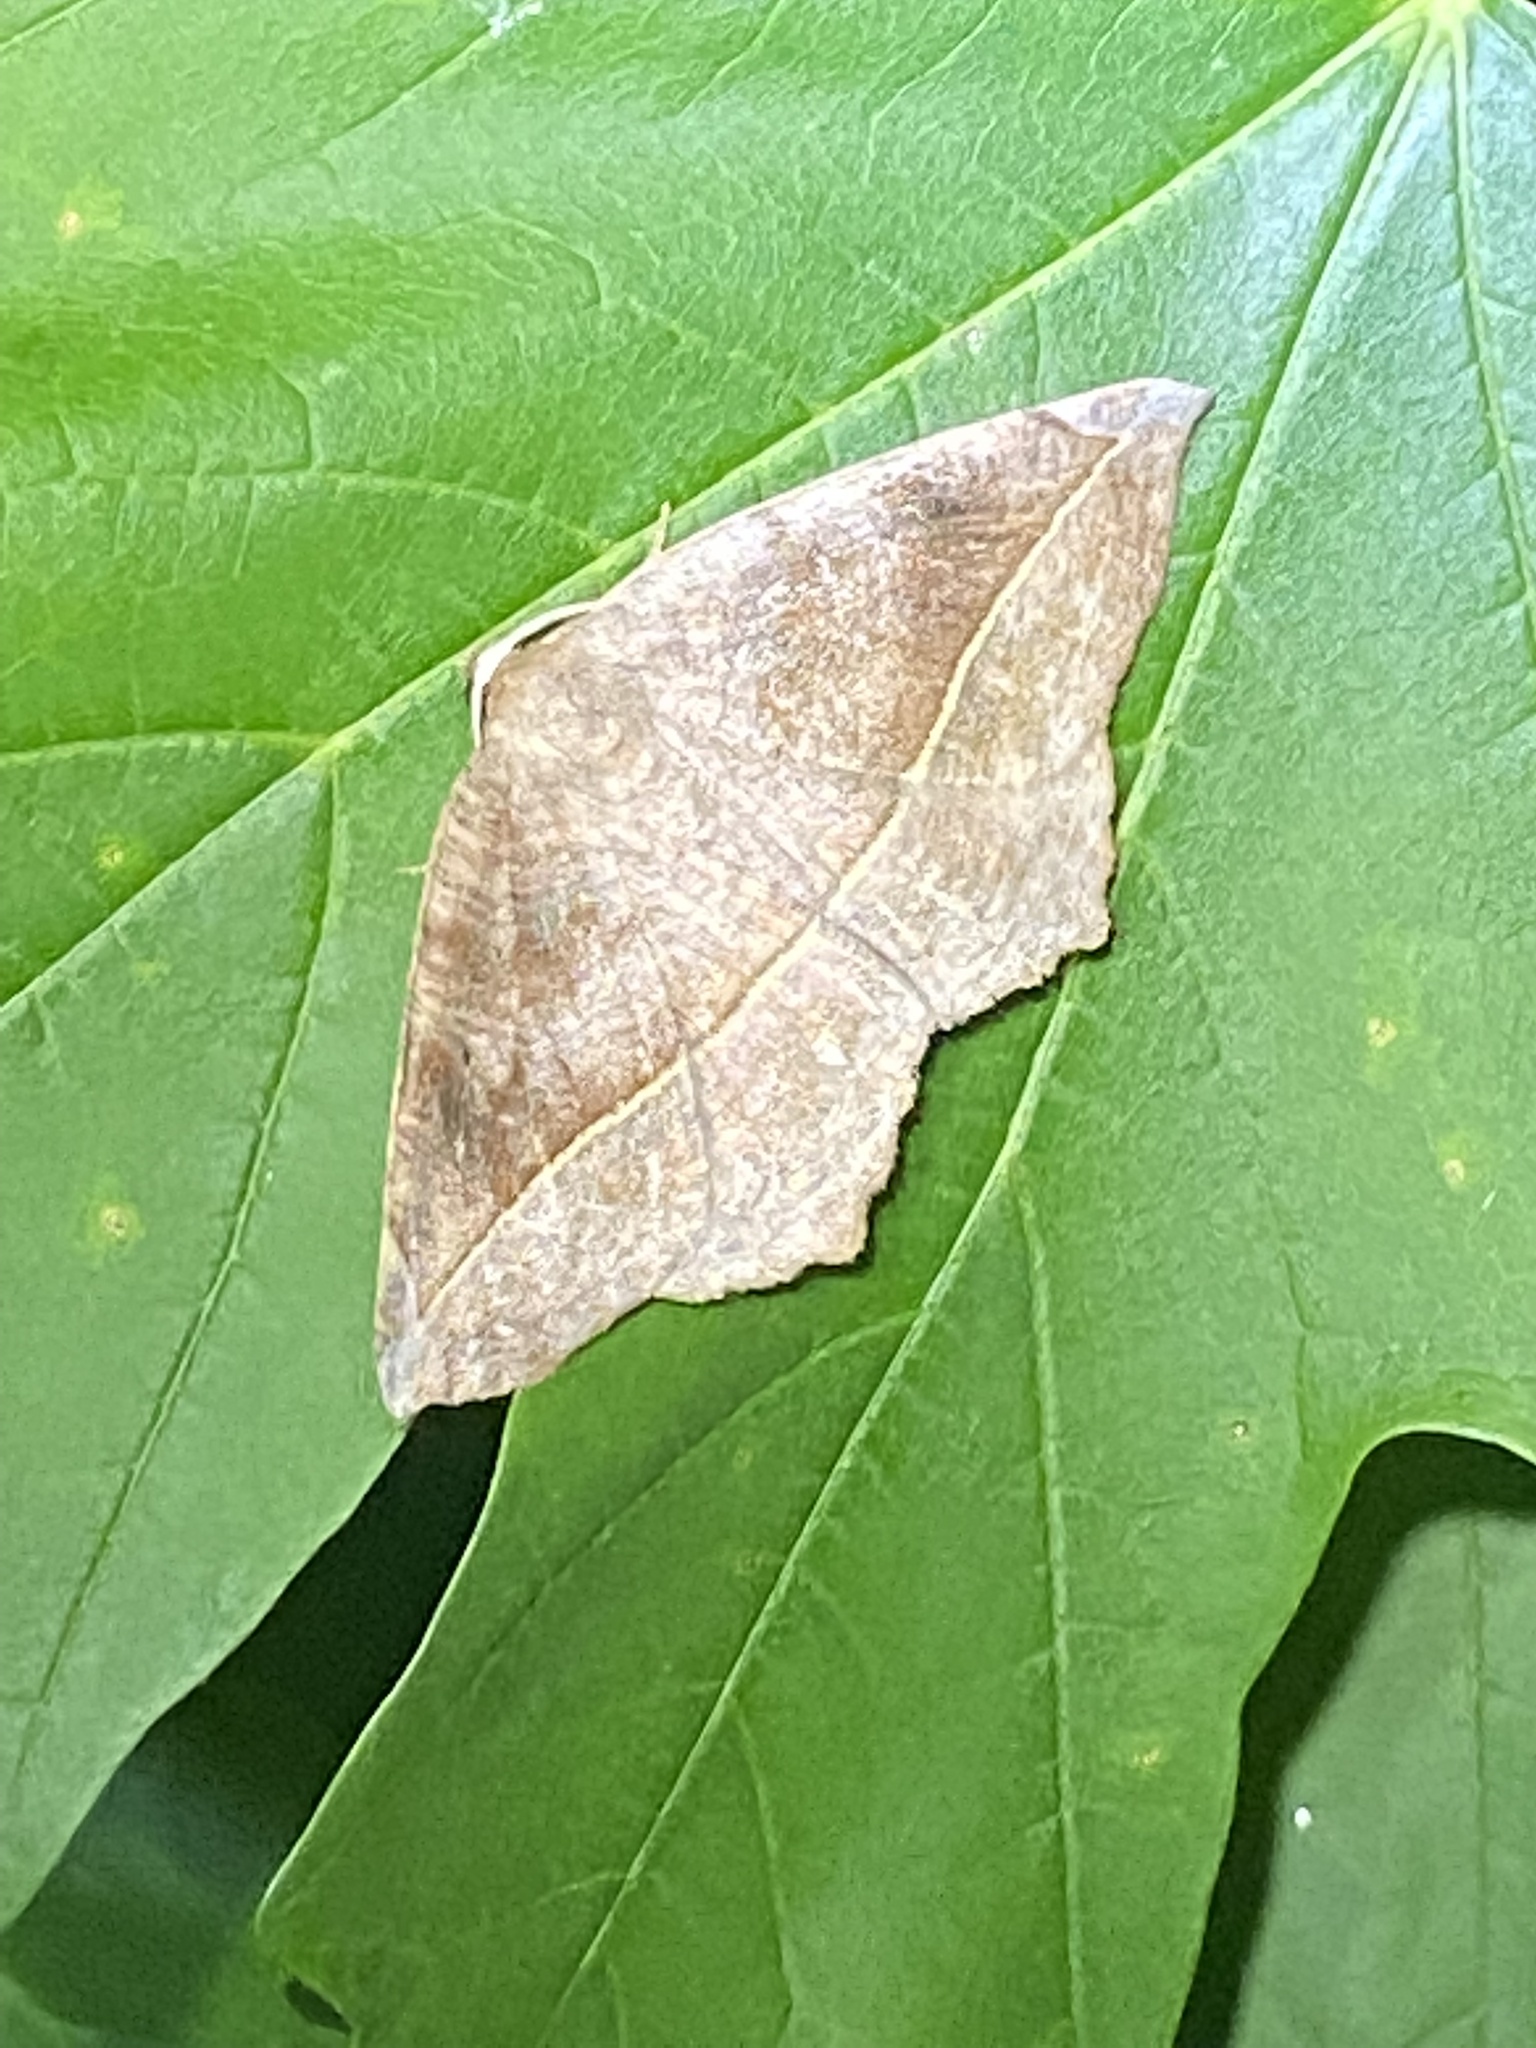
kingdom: Animalia
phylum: Arthropoda
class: Insecta
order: Lepidoptera
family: Geometridae
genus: Eutrapela
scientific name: Eutrapela clemataria
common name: Curved-toothed geometer
